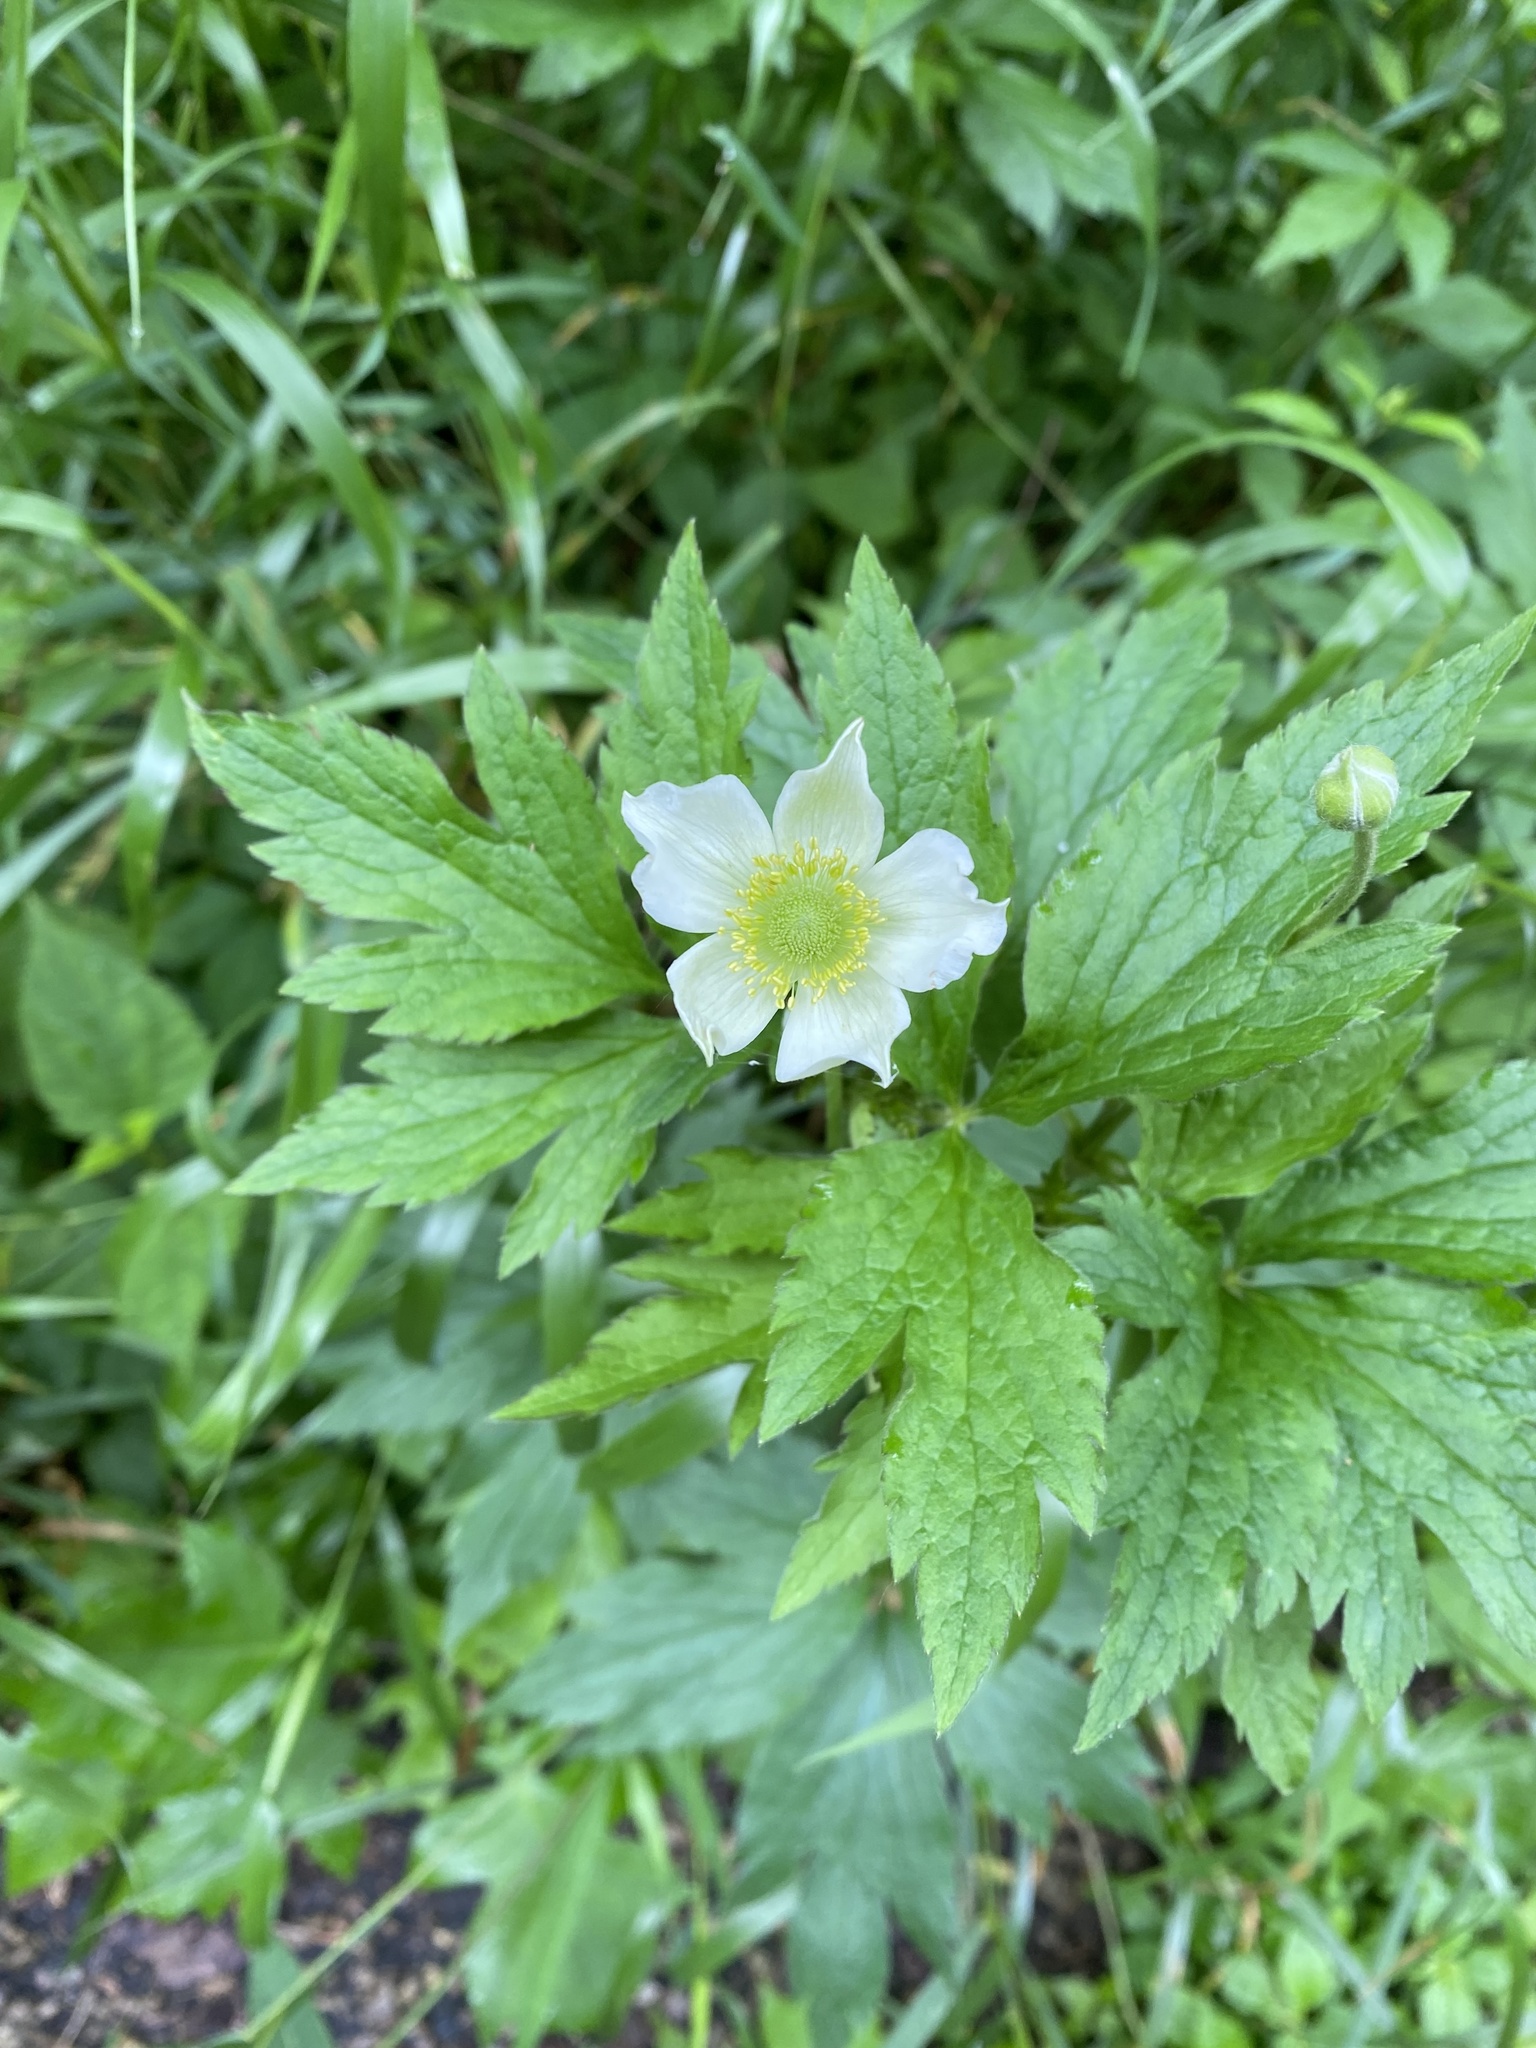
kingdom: Plantae
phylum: Tracheophyta
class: Magnoliopsida
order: Ranunculales
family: Ranunculaceae
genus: Anemone
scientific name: Anemone virginiana
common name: Tall anemone
